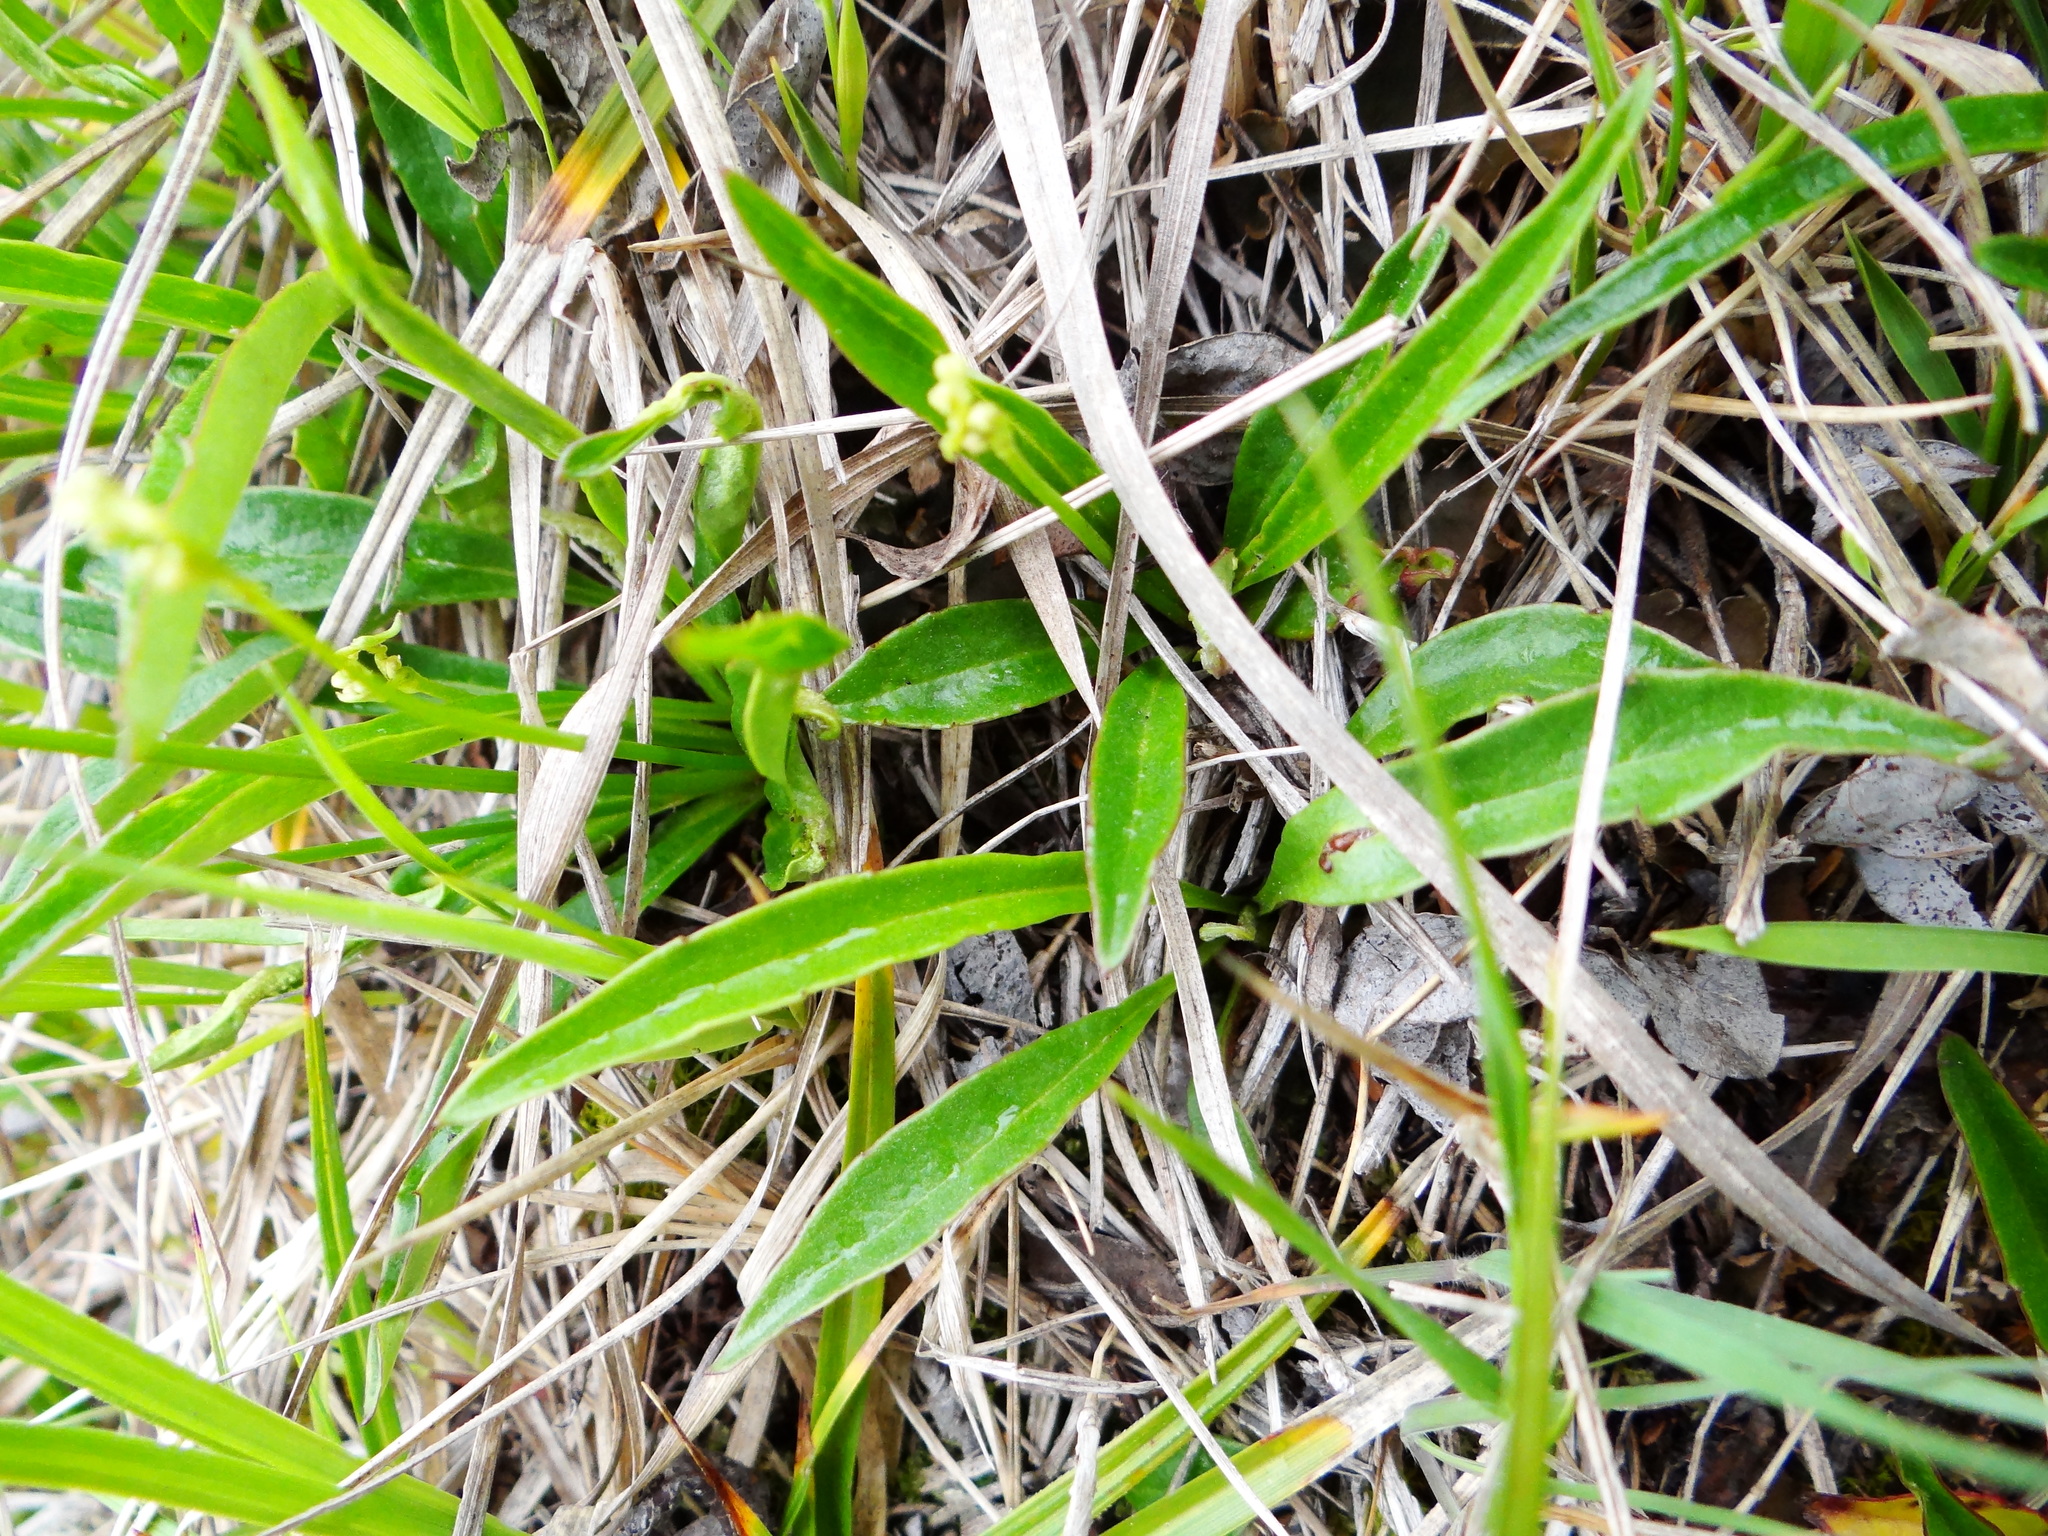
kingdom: Plantae
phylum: Tracheophyta
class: Magnoliopsida
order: Asterales
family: Asteraceae
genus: Ixeridium
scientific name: Ixeridium transnokoense
